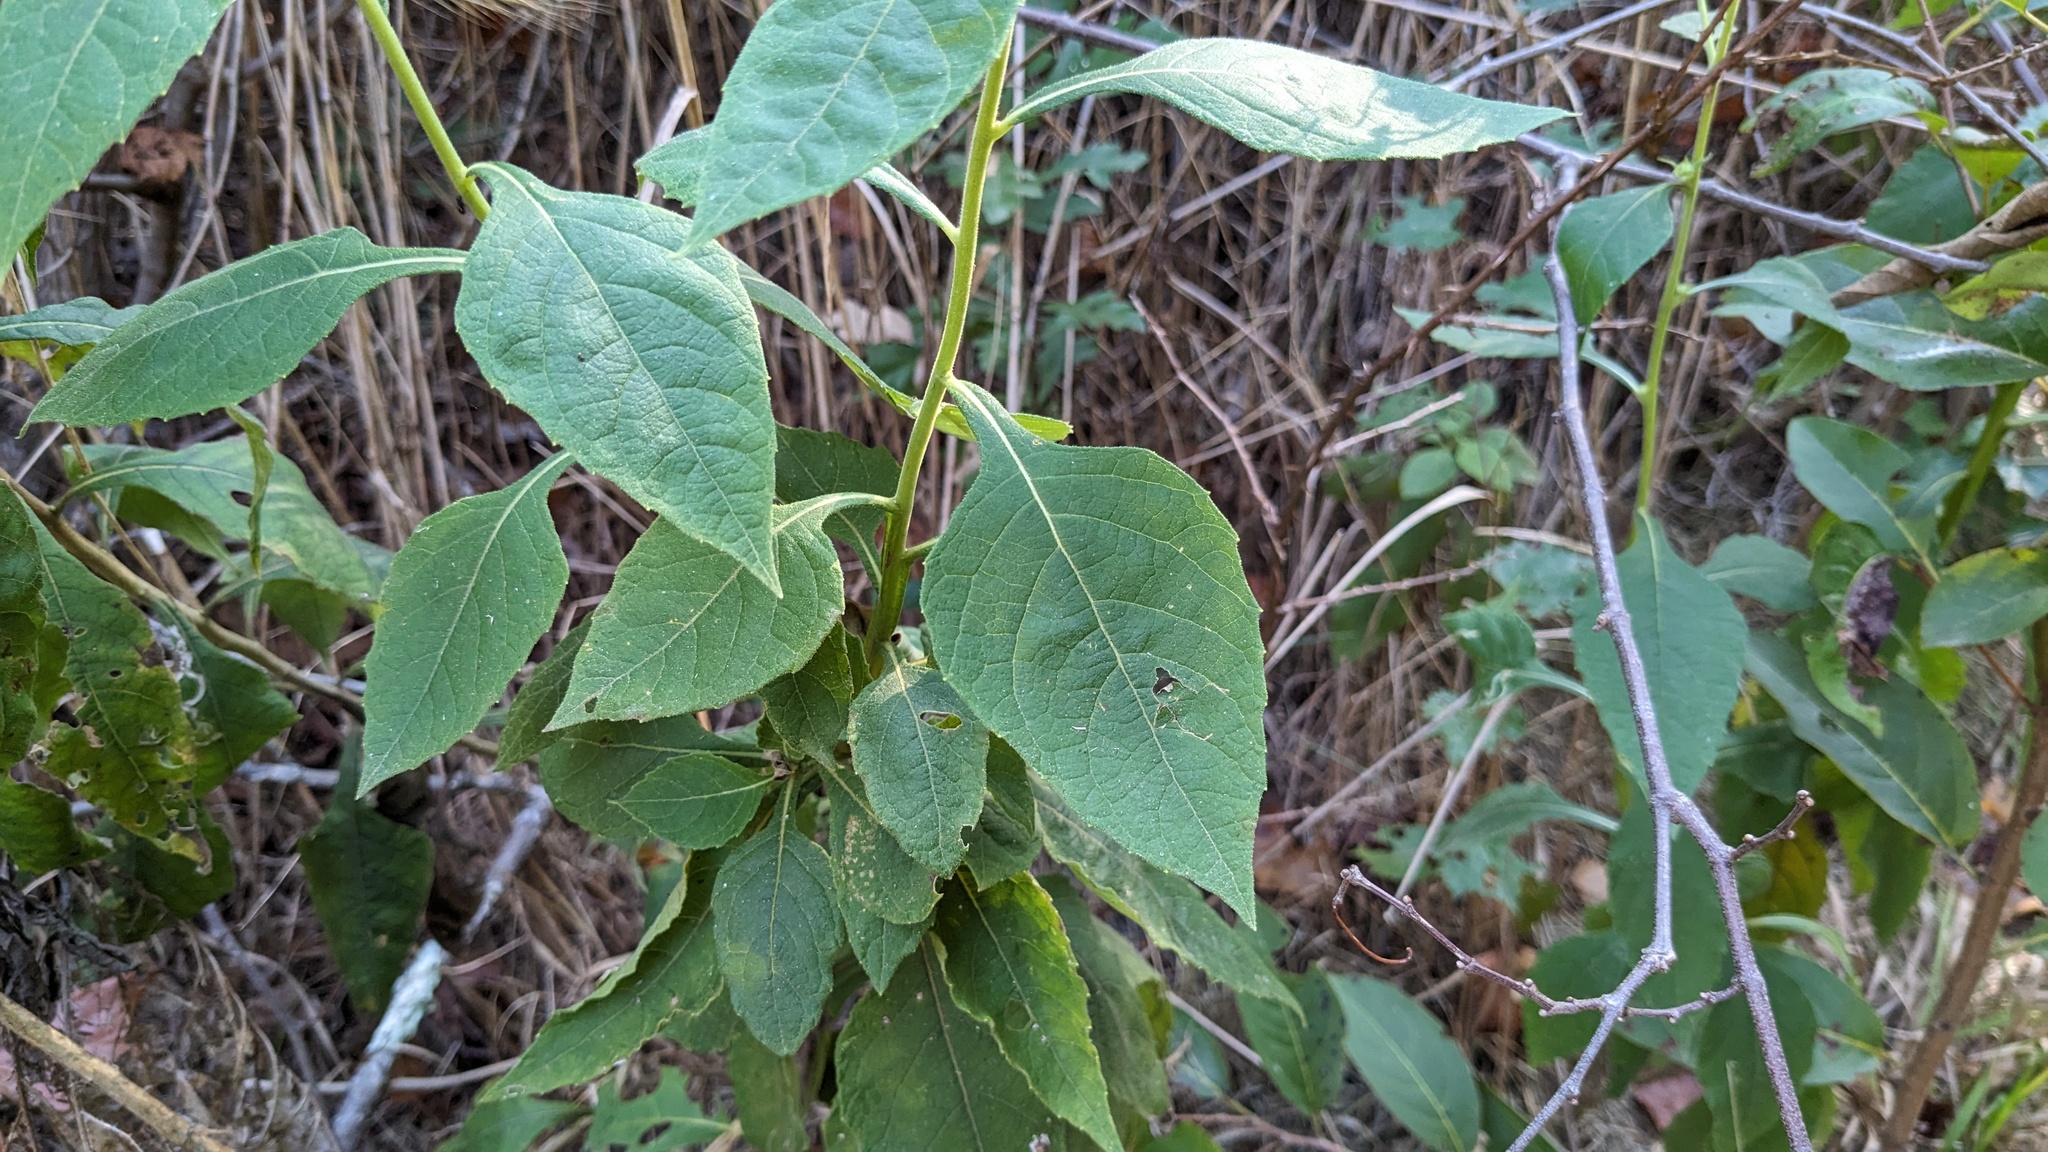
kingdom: Plantae
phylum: Tracheophyta
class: Magnoliopsida
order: Asterales
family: Asteraceae
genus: Verbesina
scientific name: Verbesina virginica
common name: Frostweed
